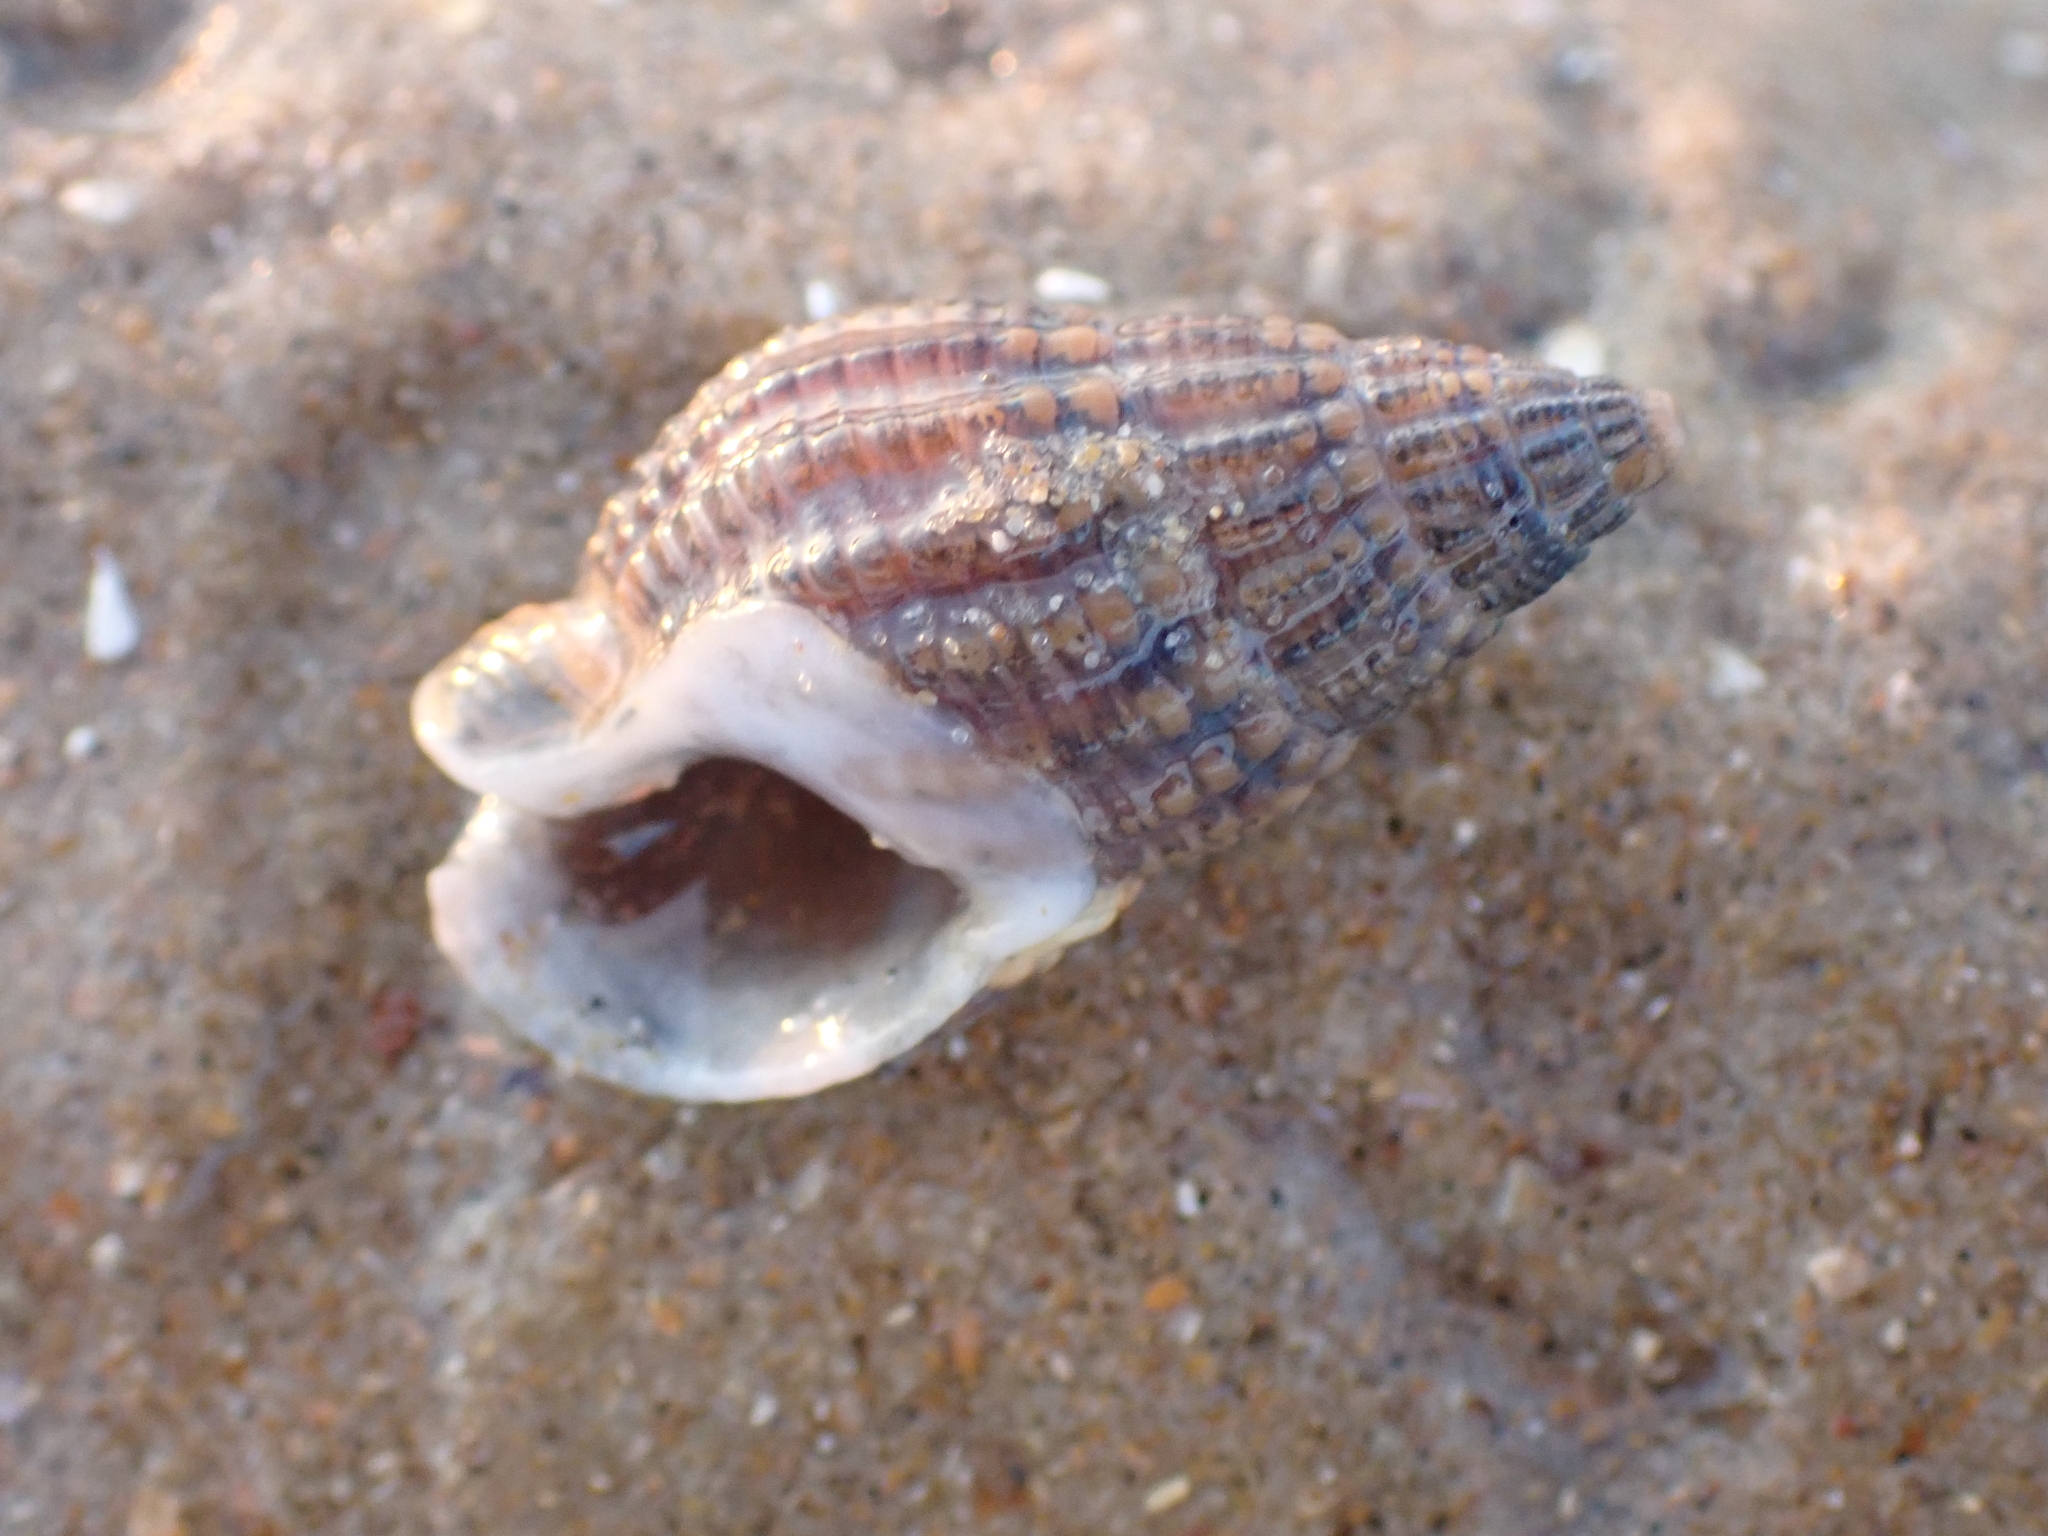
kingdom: Animalia
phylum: Mollusca
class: Gastropoda
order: Neogastropoda
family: Nassariidae
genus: Tritia
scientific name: Tritia reticulata
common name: Netted dog whelk
